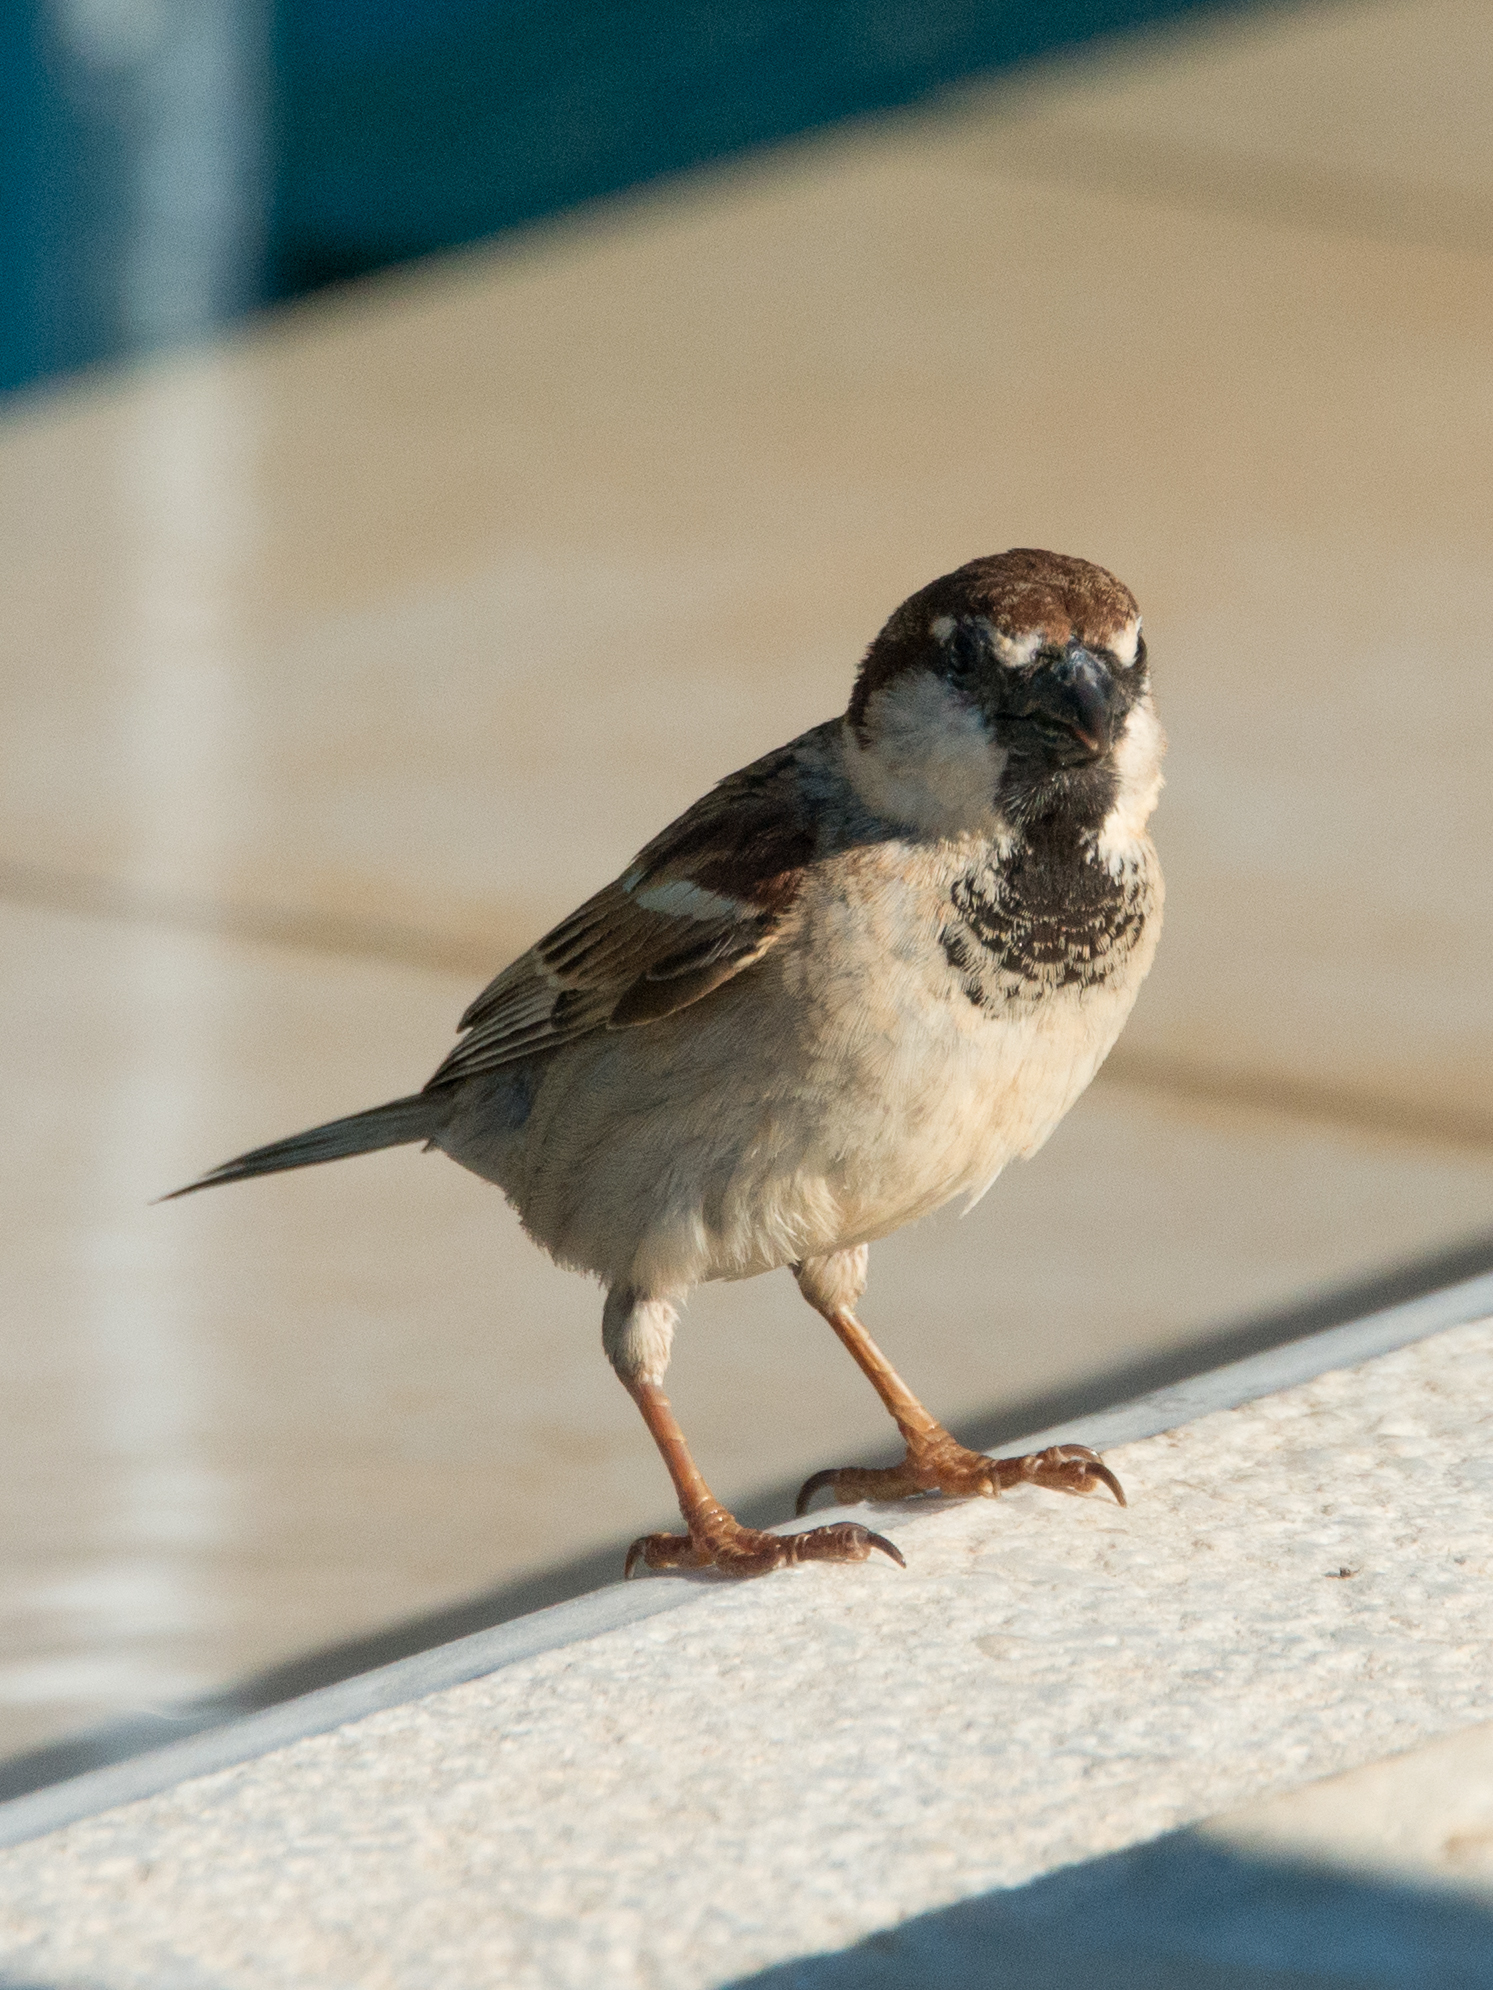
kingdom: Animalia
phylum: Chordata
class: Aves
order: Passeriformes
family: Passeridae
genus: Passer
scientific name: Passer italiae
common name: Italian sparrow
